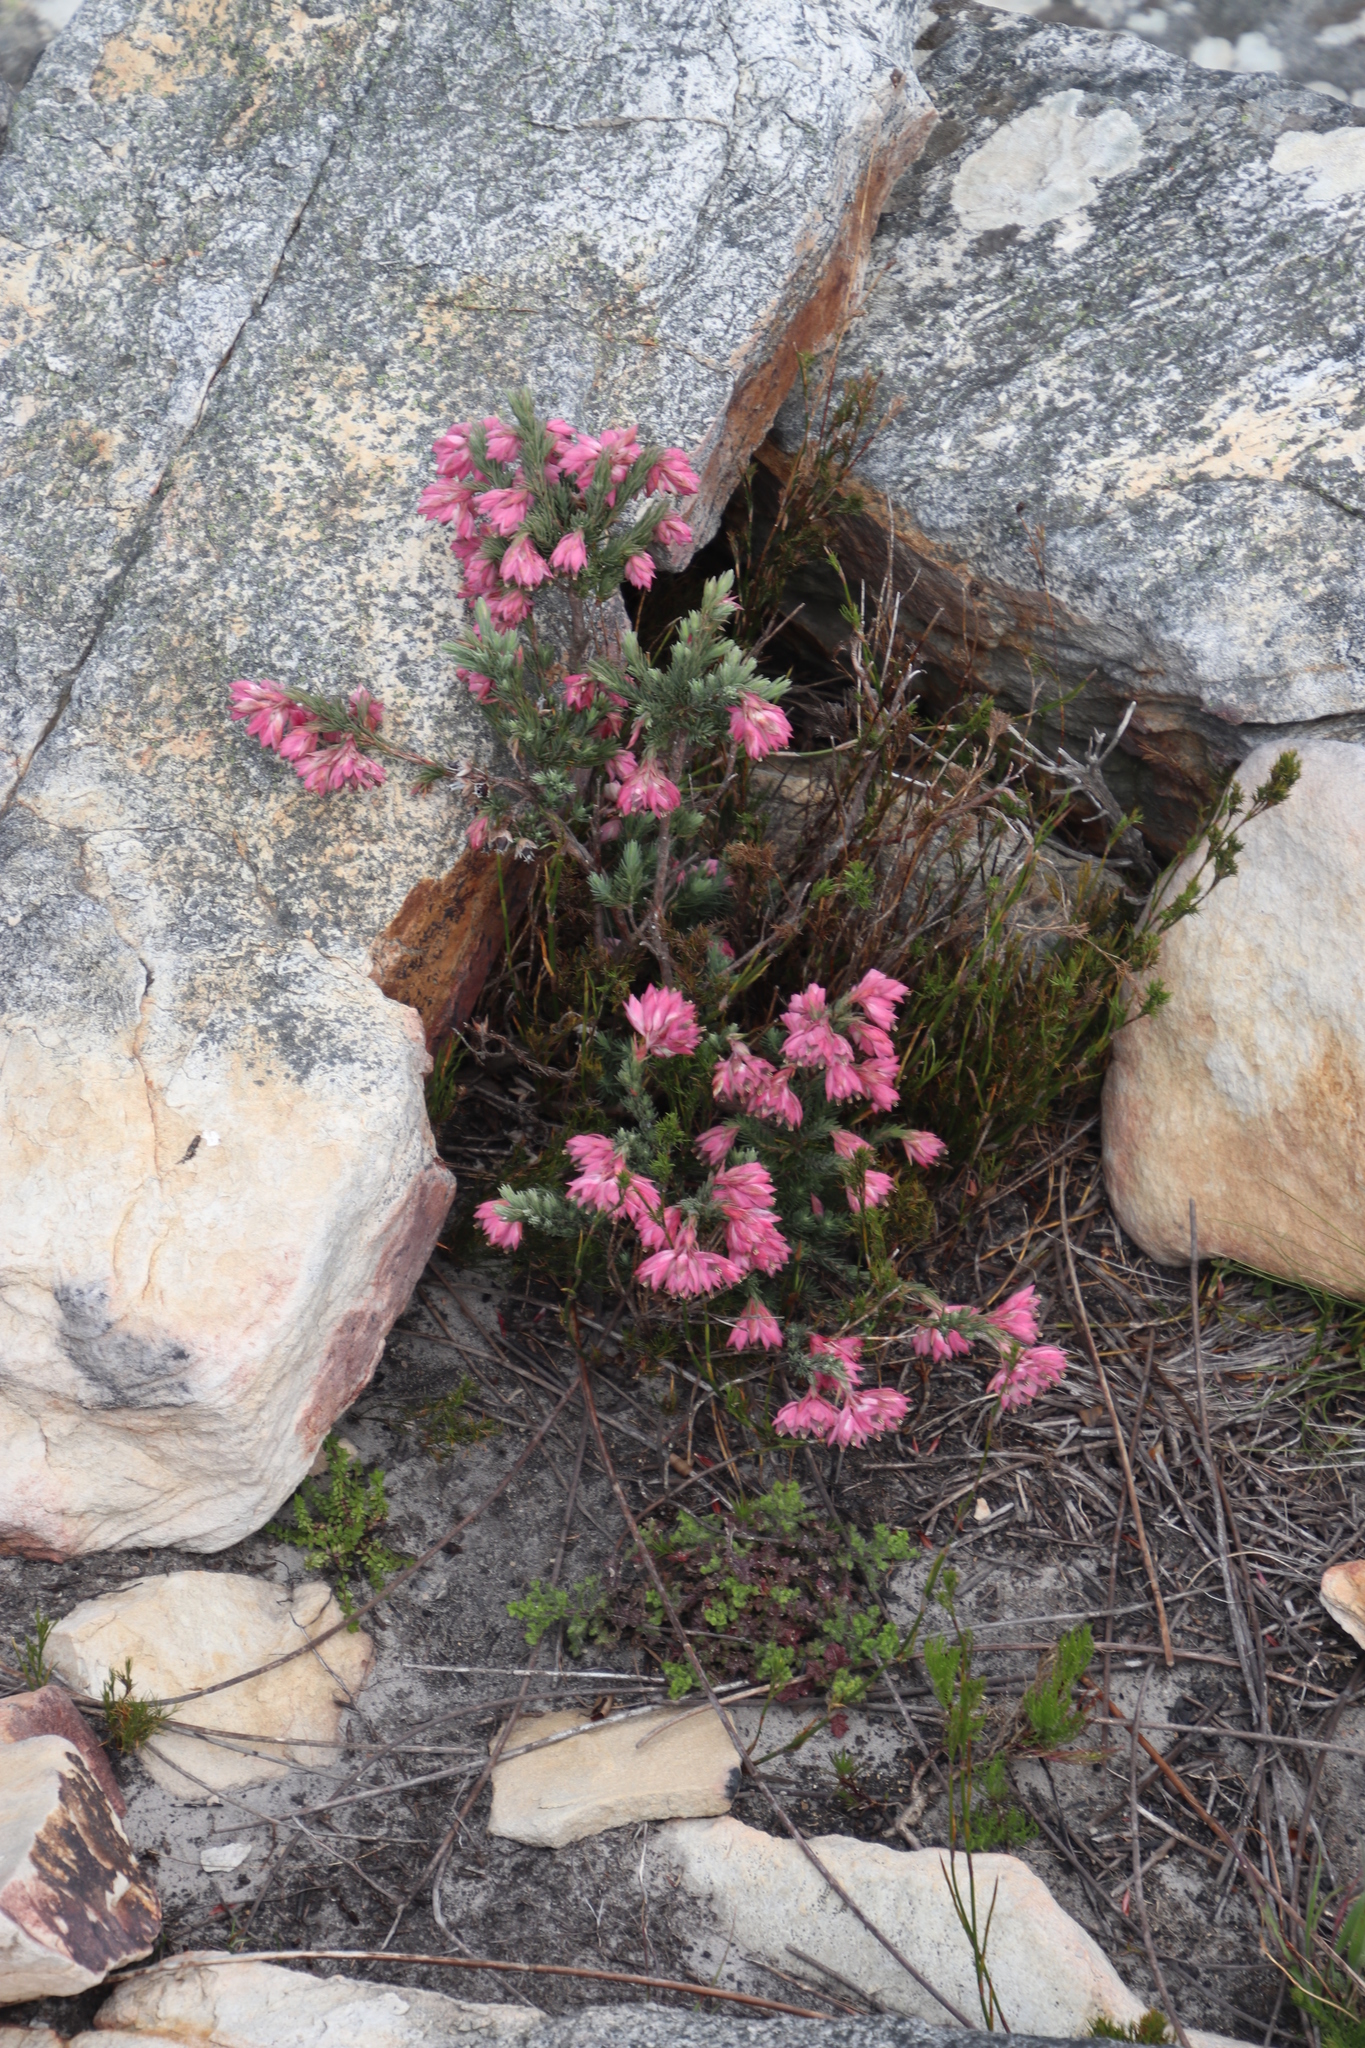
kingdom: Plantae
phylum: Tracheophyta
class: Magnoliopsida
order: Ericales
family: Ericaceae
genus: Erica
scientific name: Erica glauca
